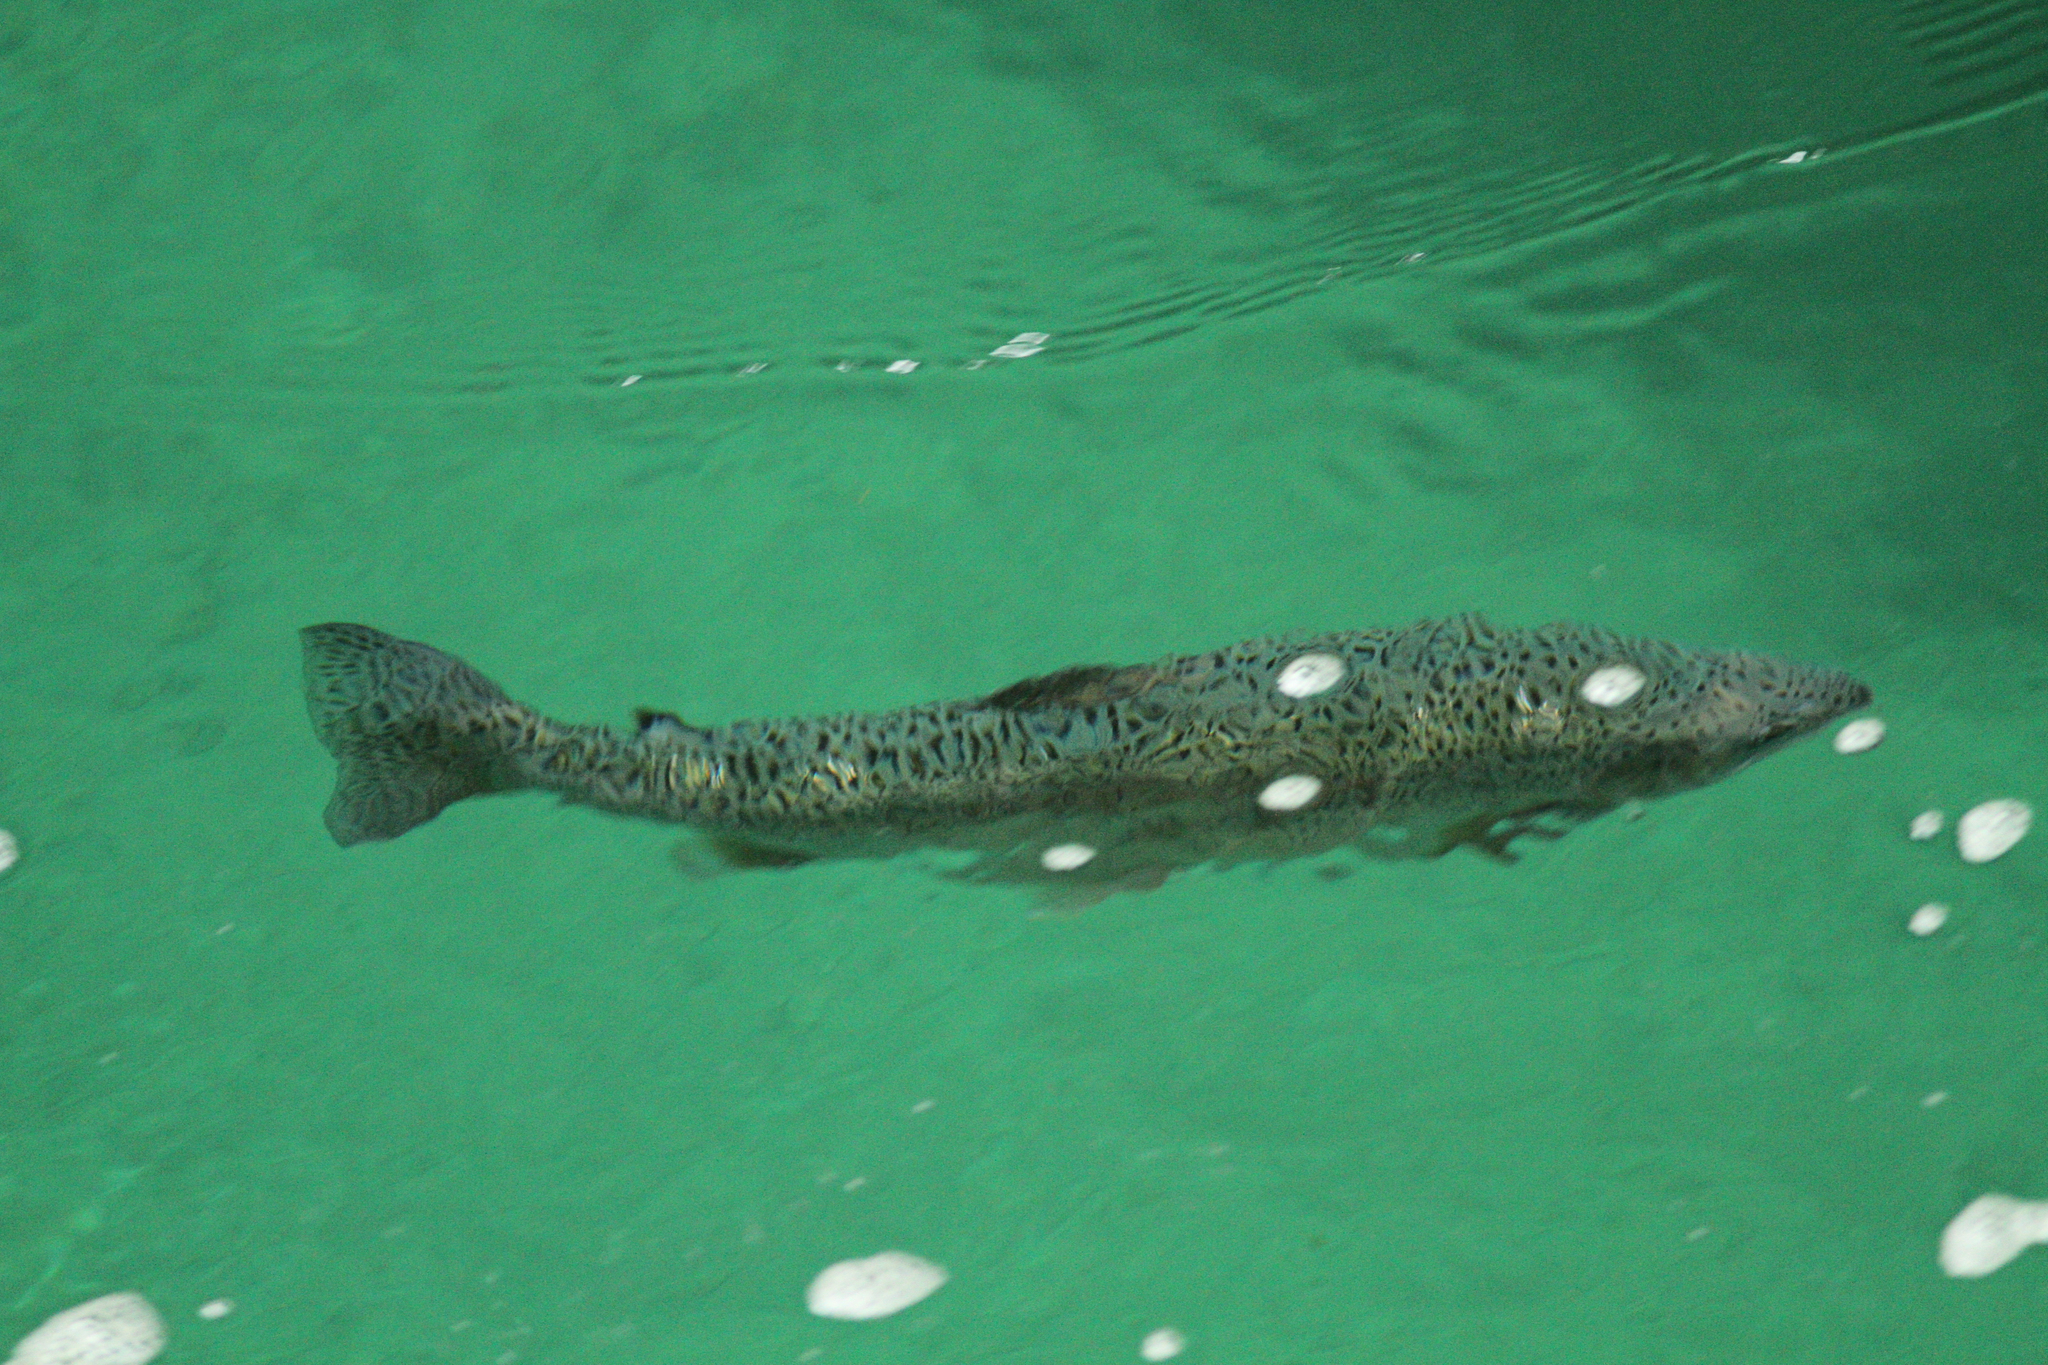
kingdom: Animalia
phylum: Chordata
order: Salmoniformes
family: Salmonidae
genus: Oncorhynchus
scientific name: Oncorhynchus mykiss
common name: Rainbow trout
